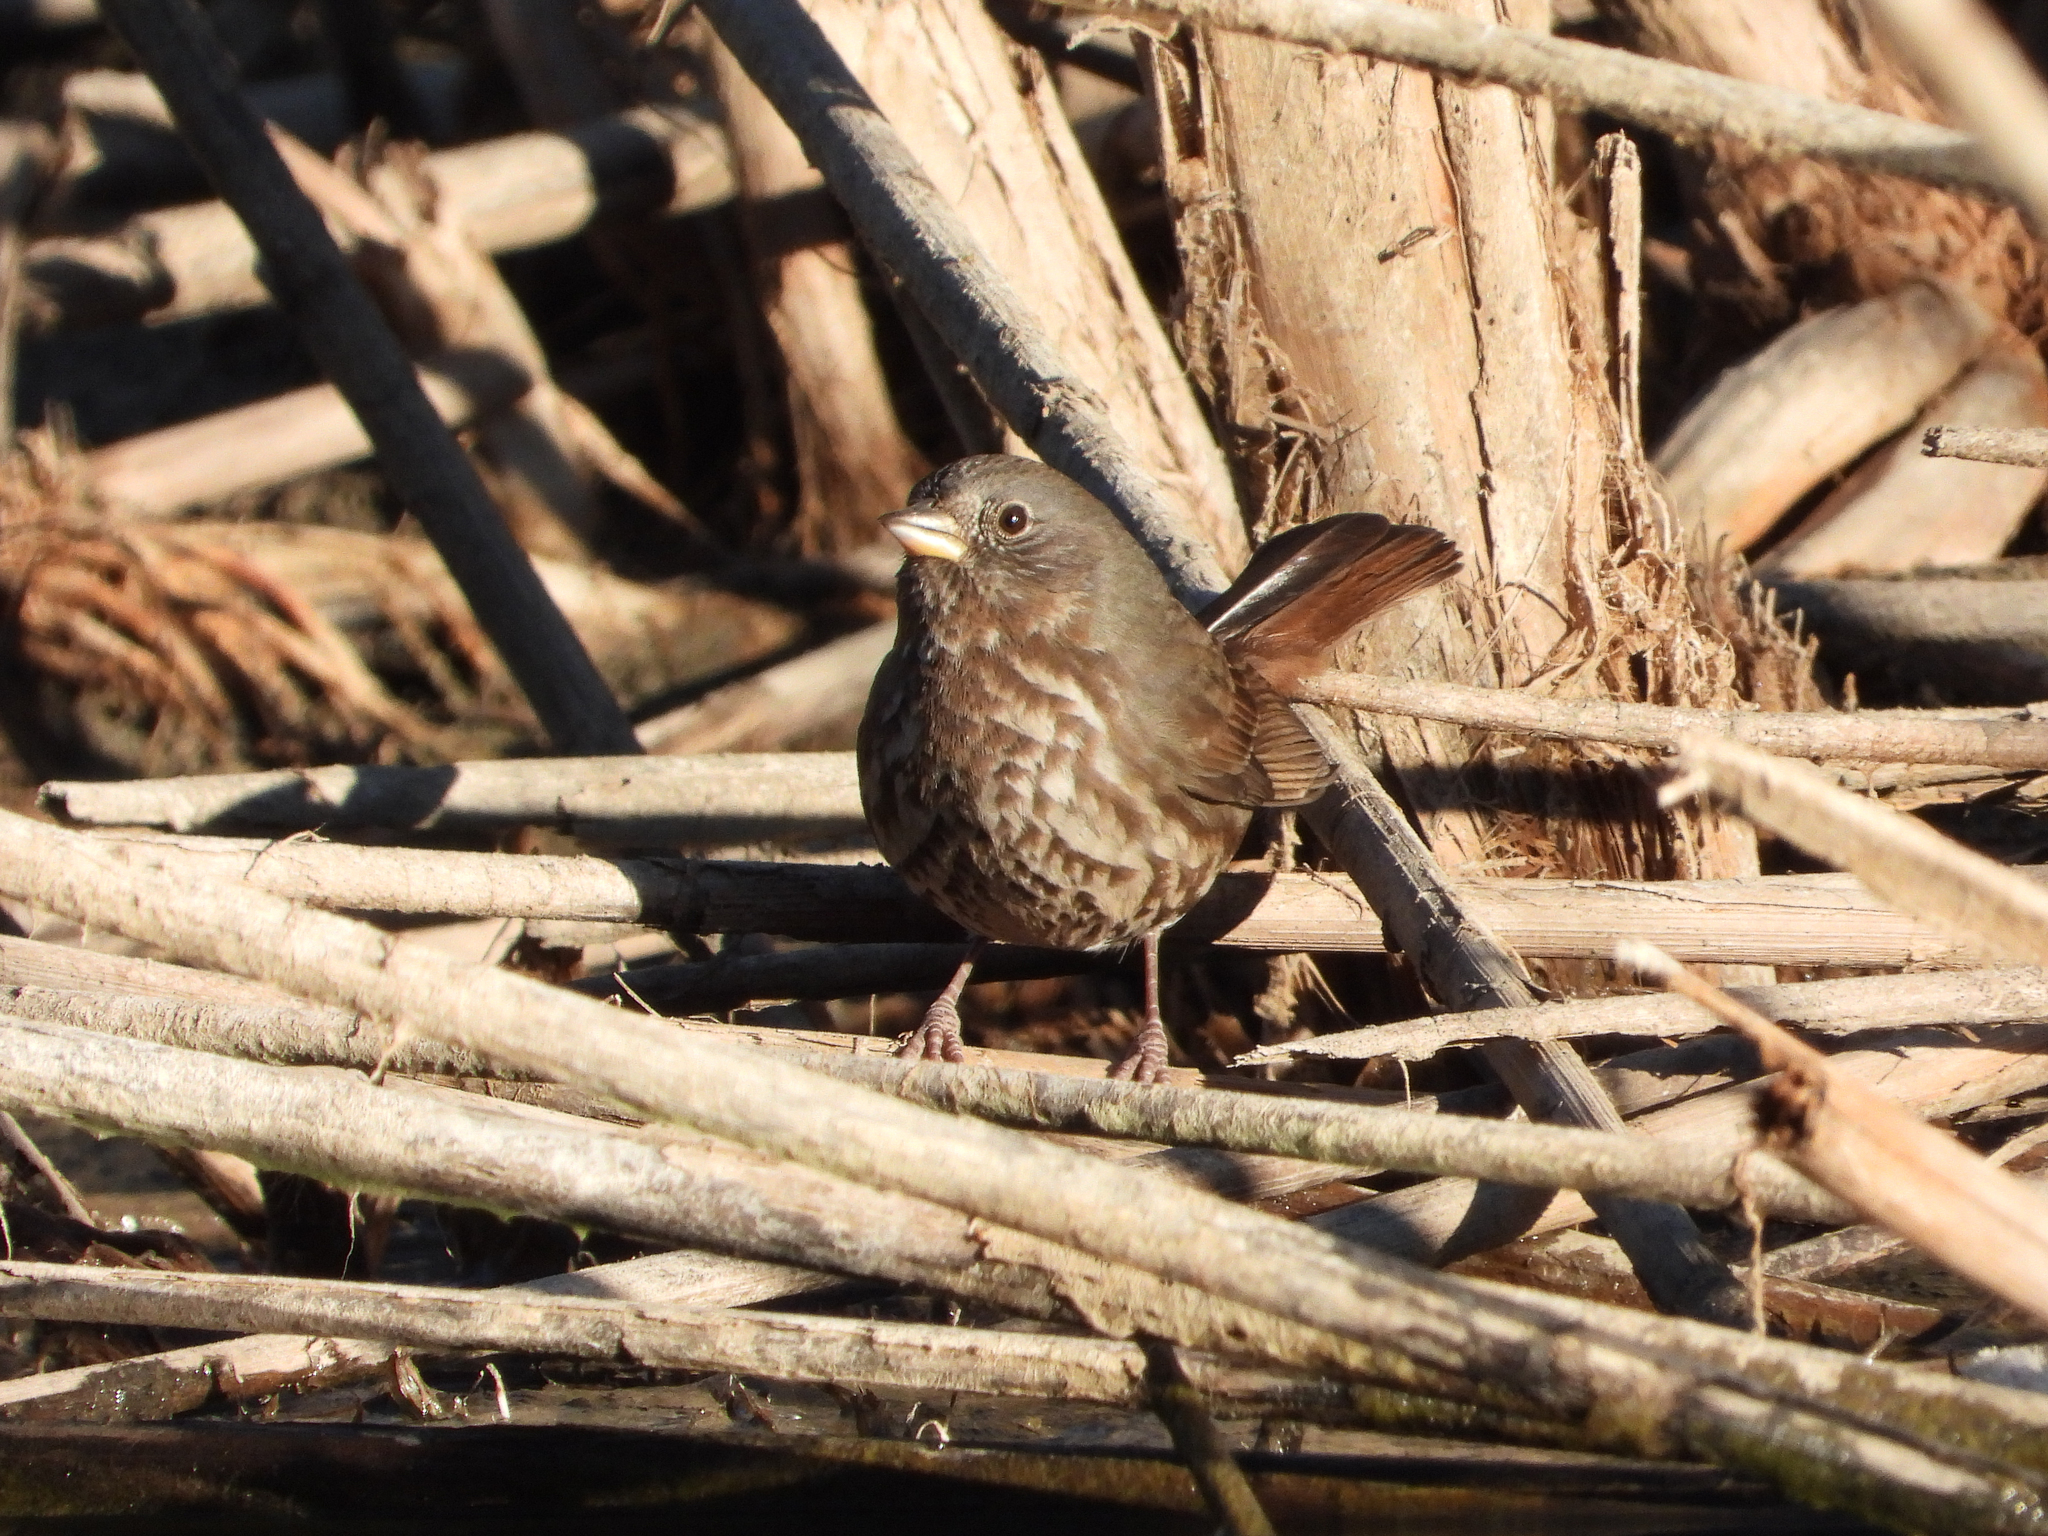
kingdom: Animalia
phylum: Chordata
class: Aves
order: Passeriformes
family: Passerellidae
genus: Passerella
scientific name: Passerella iliaca
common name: Fox sparrow
